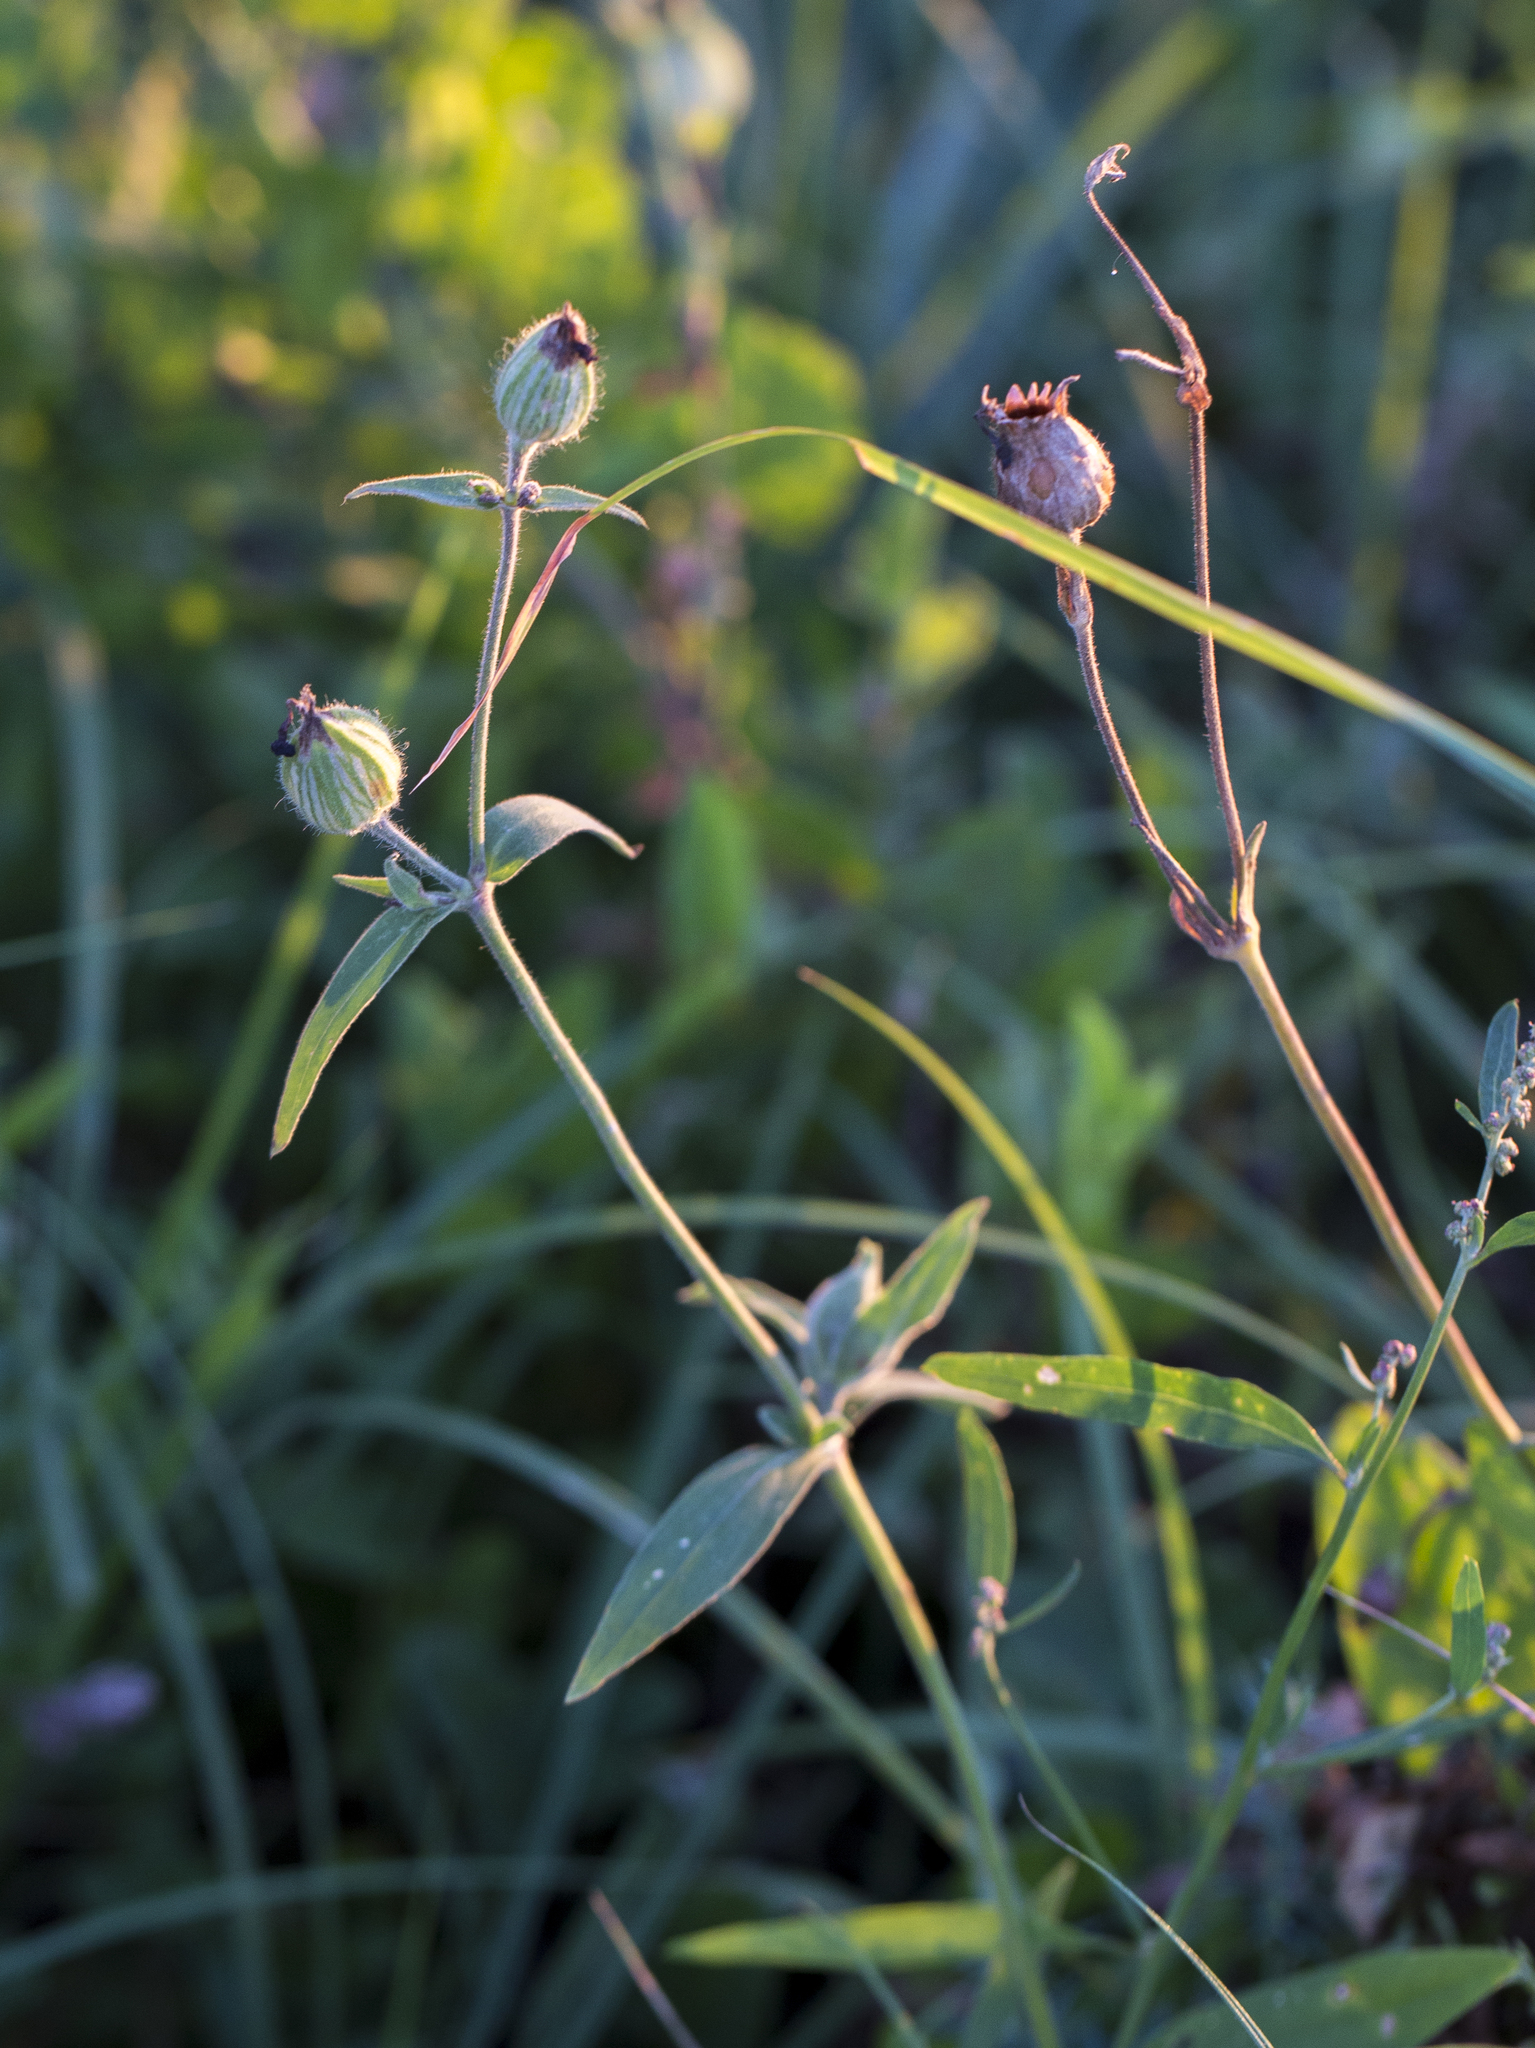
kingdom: Plantae
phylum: Tracheophyta
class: Magnoliopsida
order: Caryophyllales
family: Caryophyllaceae
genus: Silene
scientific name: Silene latifolia
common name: White campion
